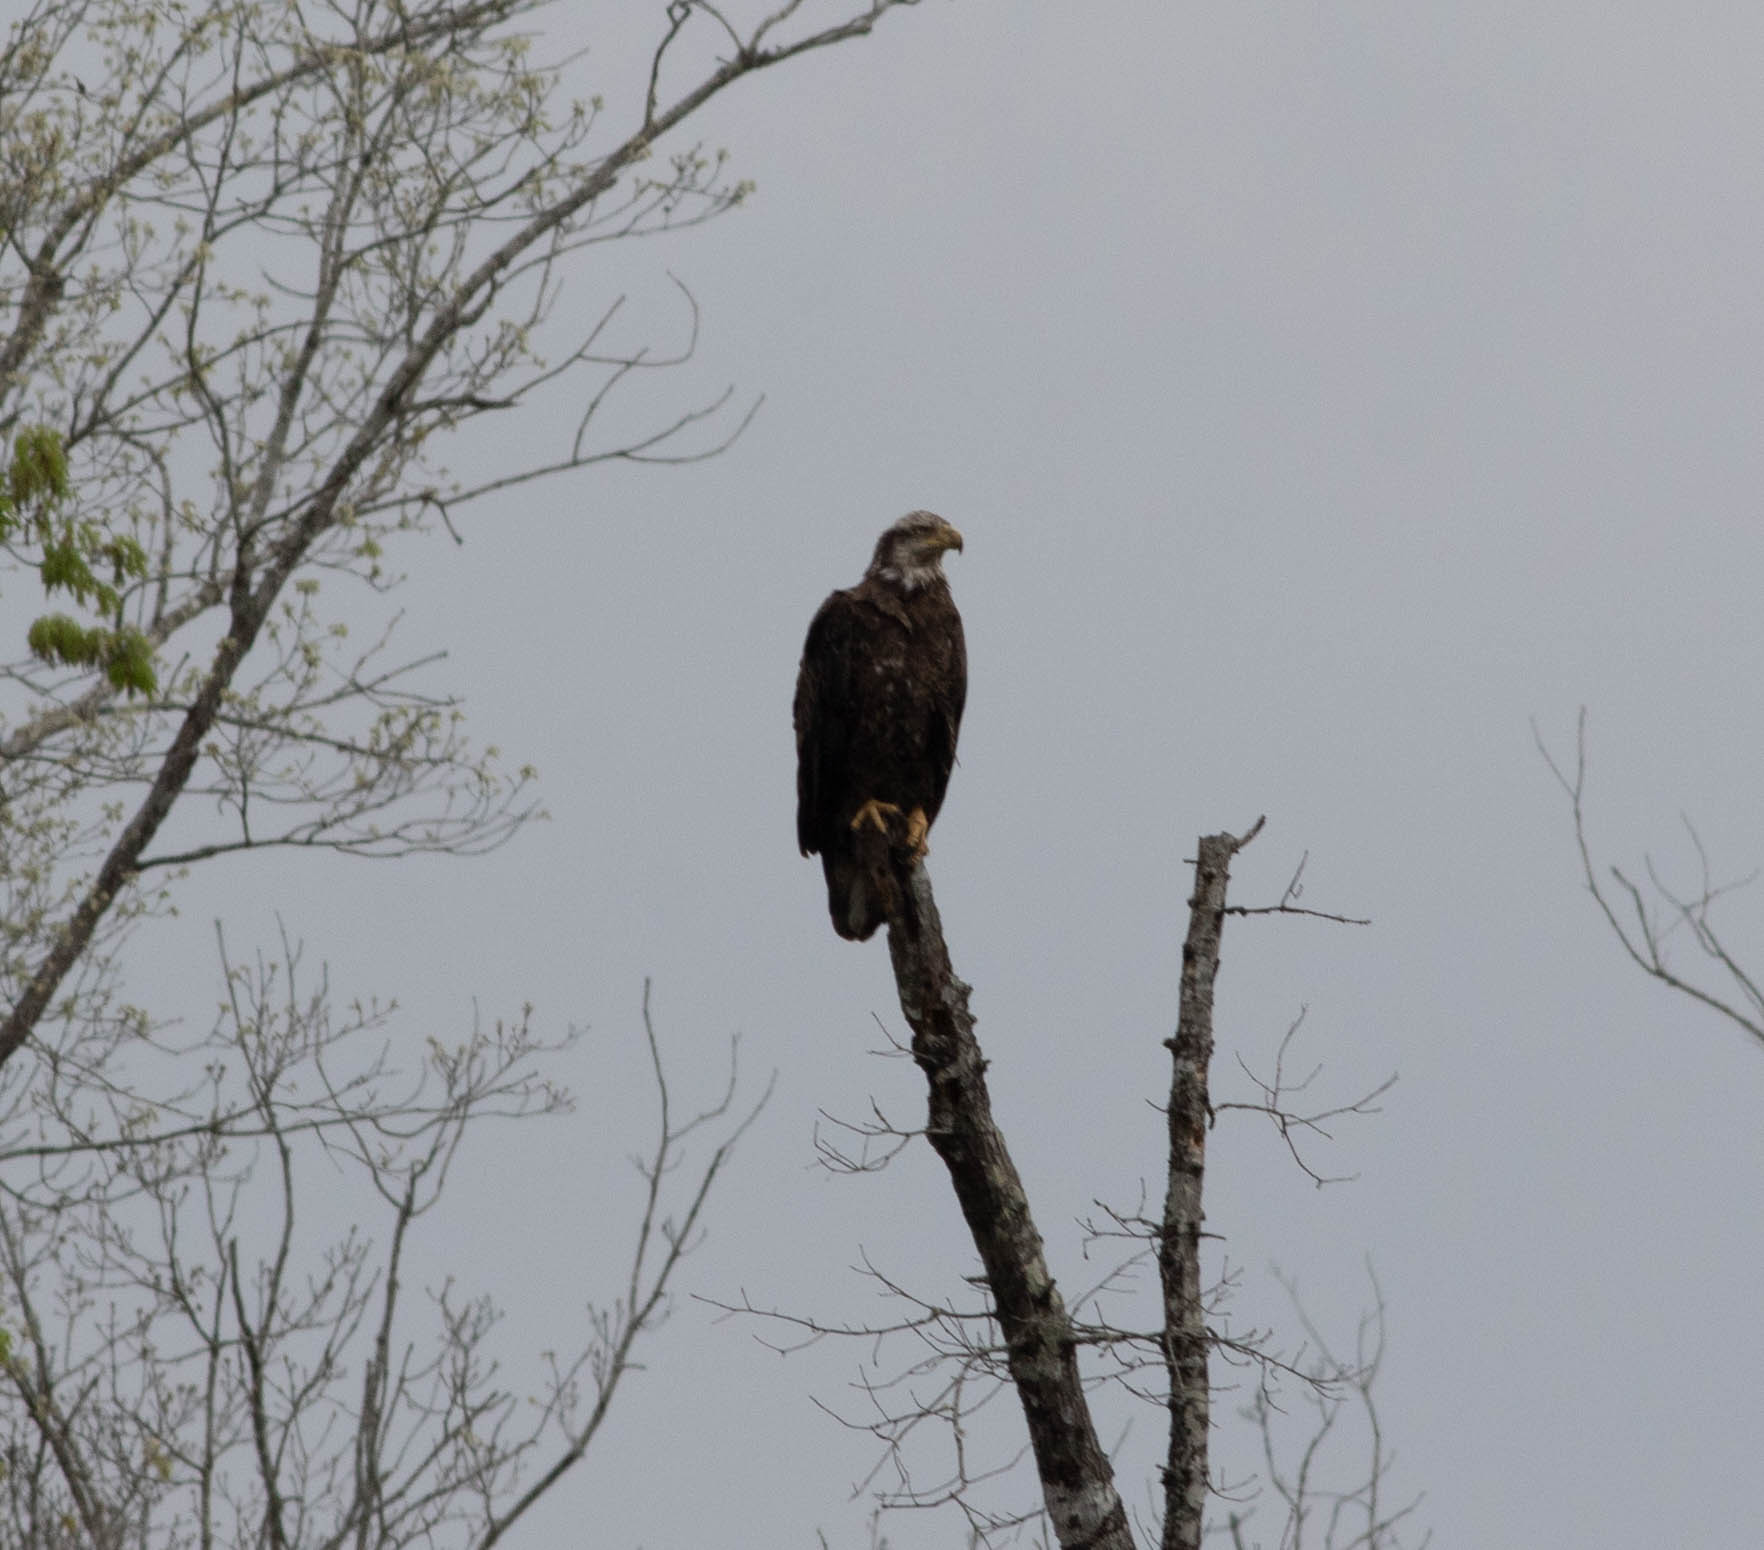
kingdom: Animalia
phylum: Chordata
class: Aves
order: Accipitriformes
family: Accipitridae
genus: Haliaeetus
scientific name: Haliaeetus leucocephalus
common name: Bald eagle
